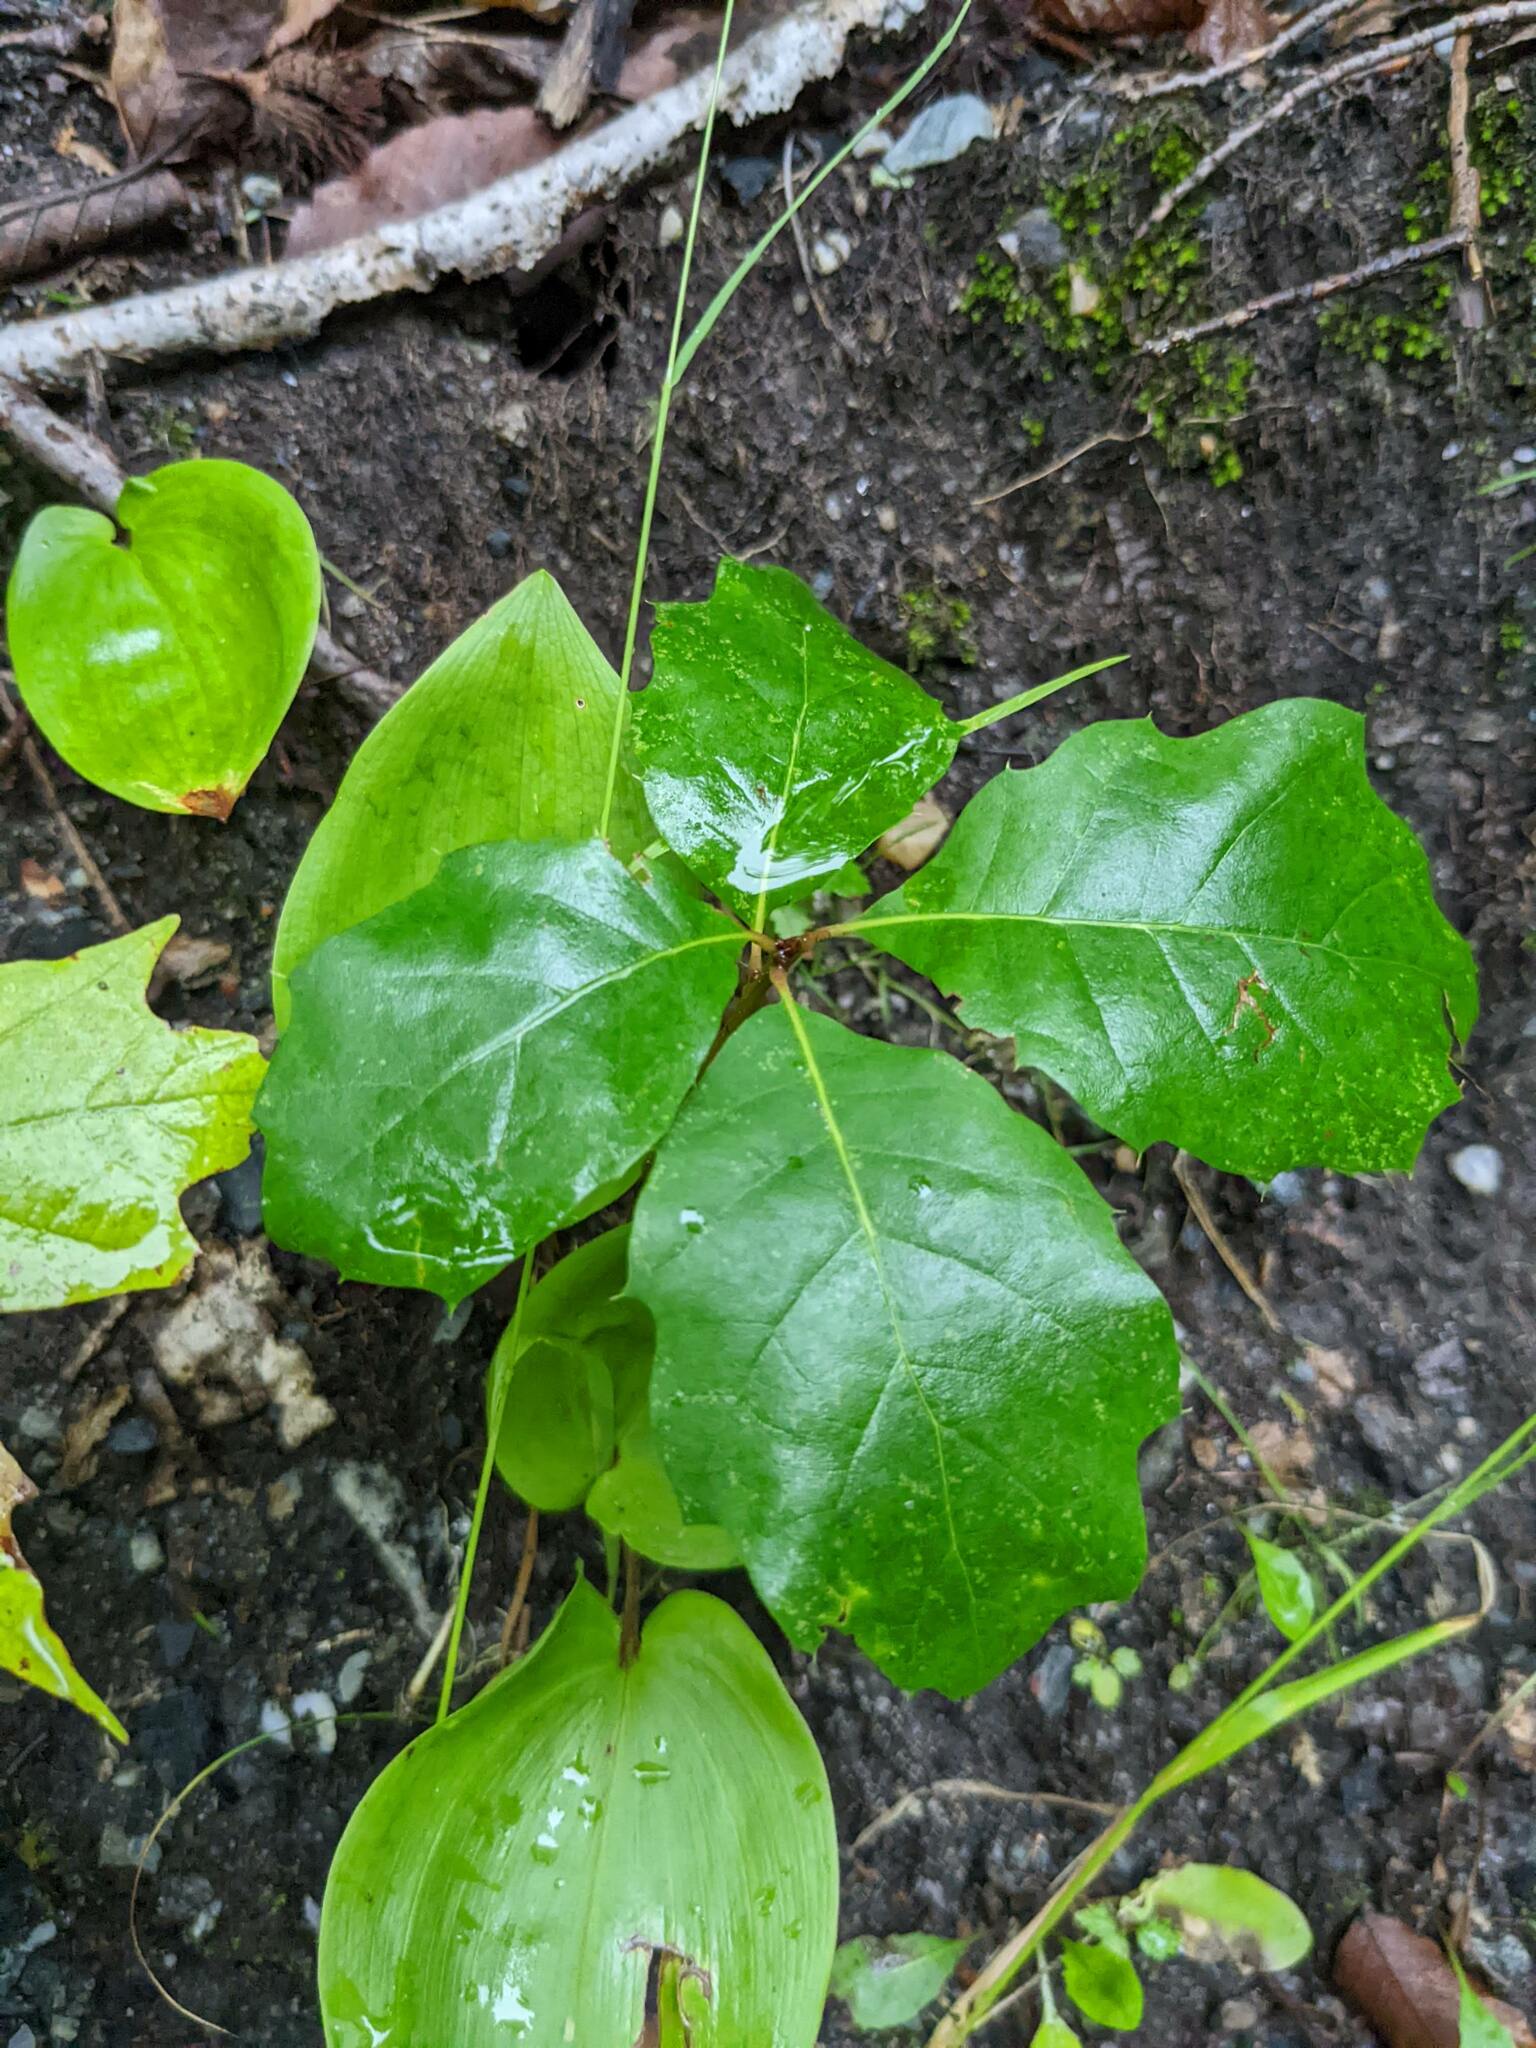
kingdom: Plantae
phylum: Tracheophyta
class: Magnoliopsida
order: Fagales
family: Fagaceae
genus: Quercus
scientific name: Quercus rubra
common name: Red oak
